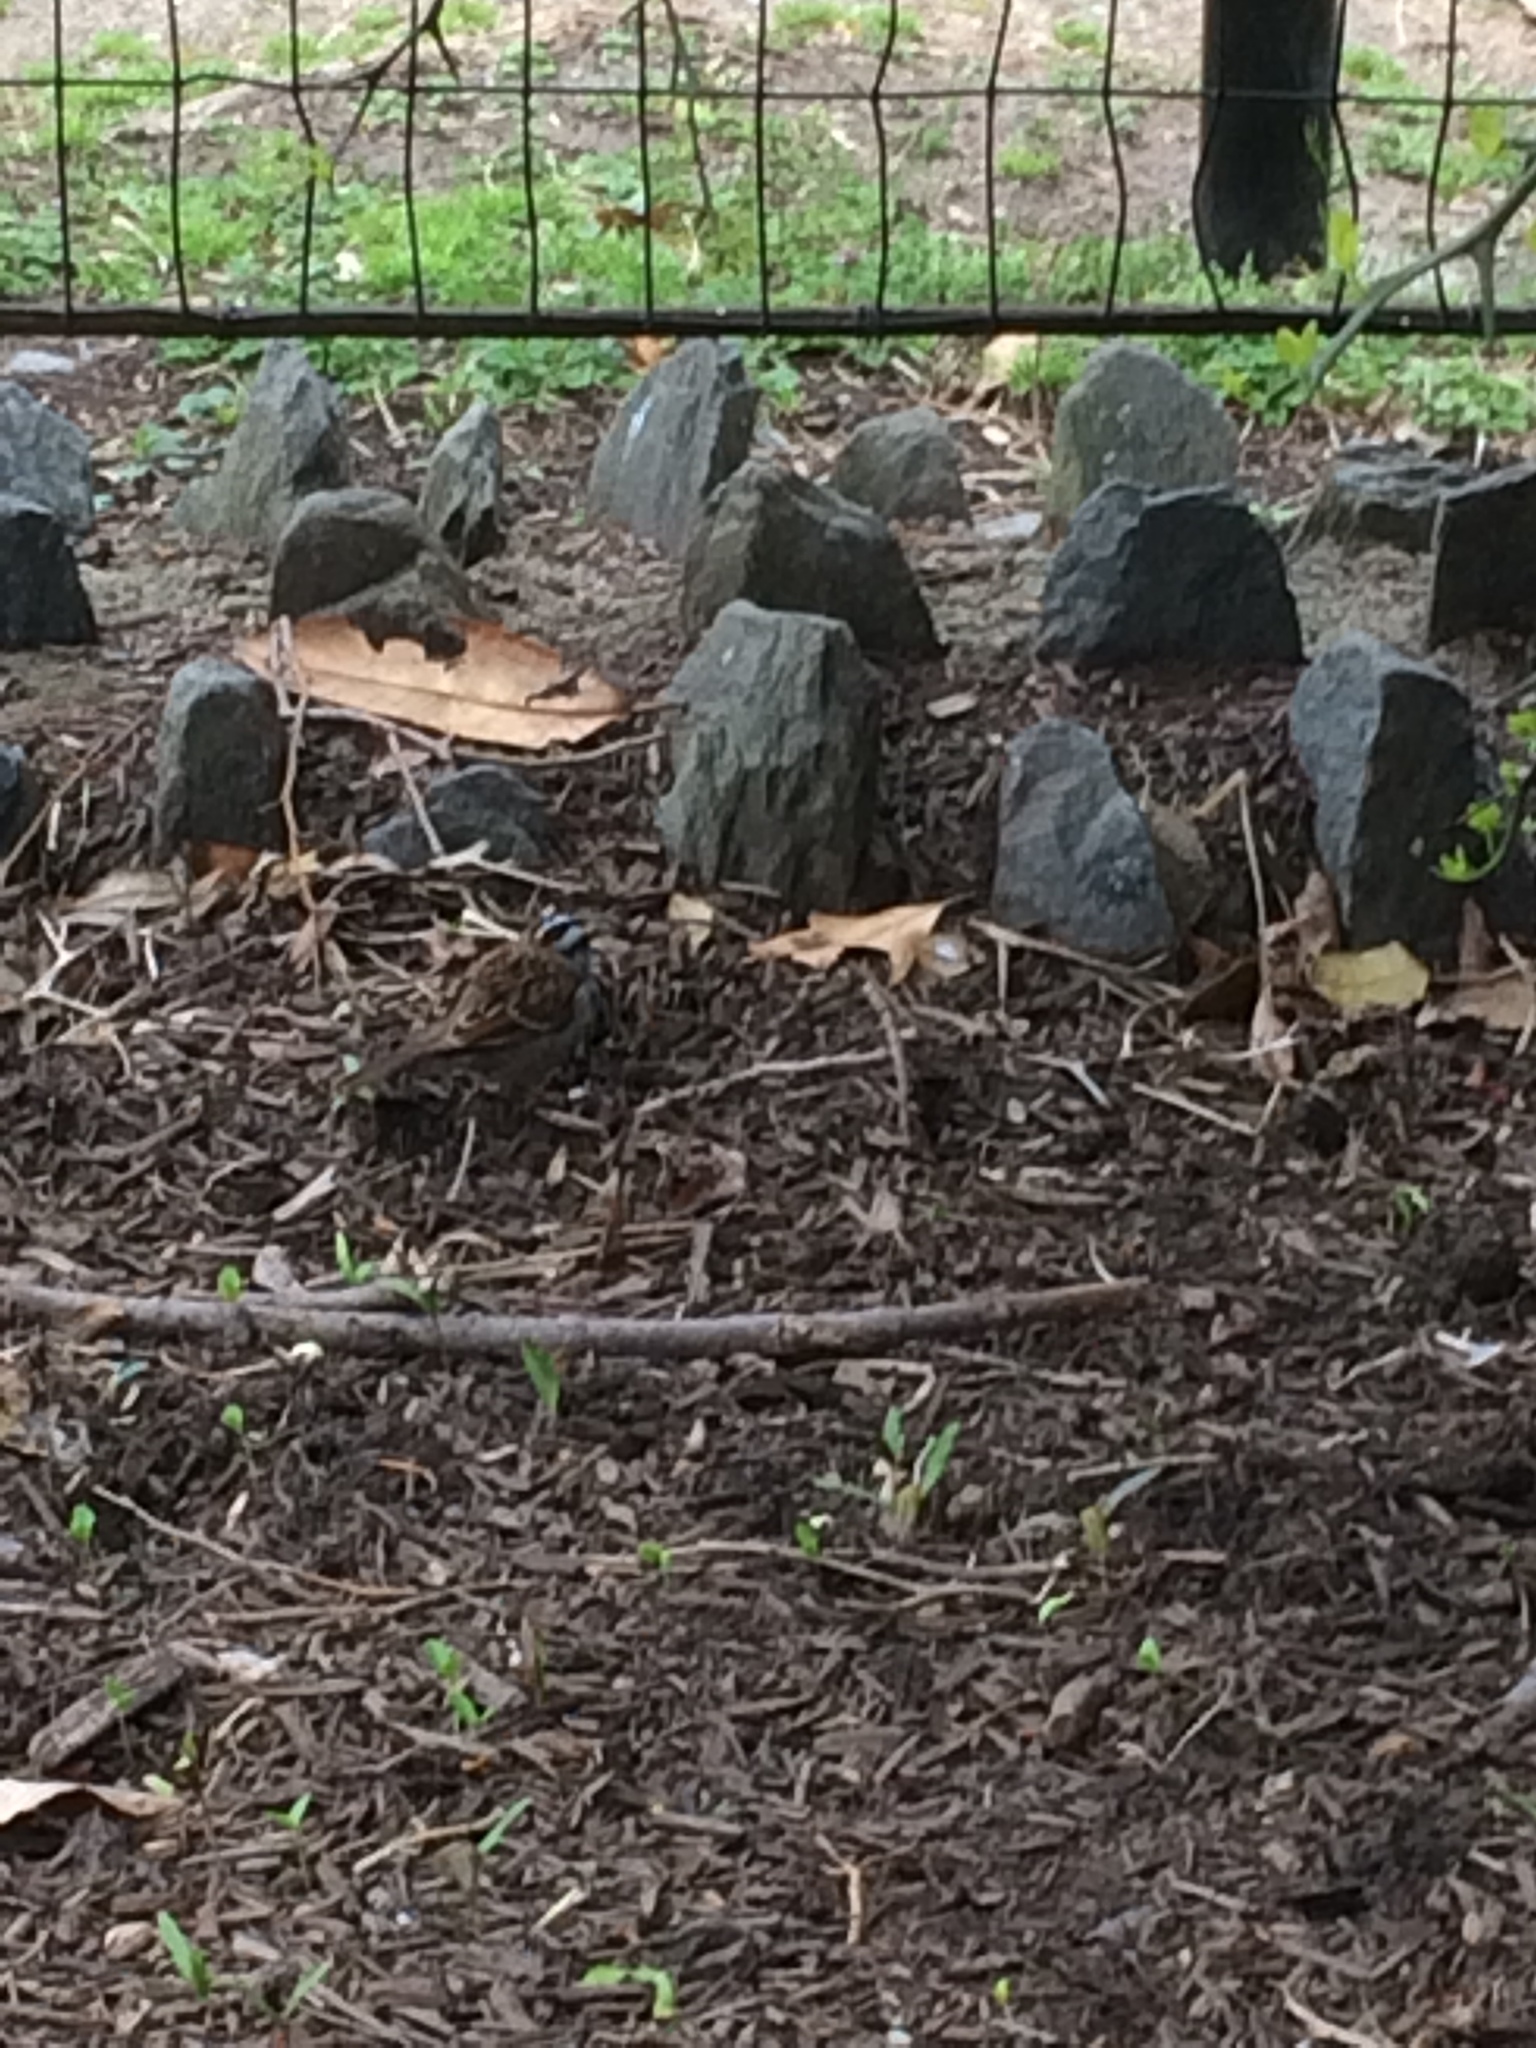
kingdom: Animalia
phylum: Chordata
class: Aves
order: Passeriformes
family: Passerellidae
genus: Zonotrichia
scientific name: Zonotrichia albicollis
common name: White-throated sparrow
